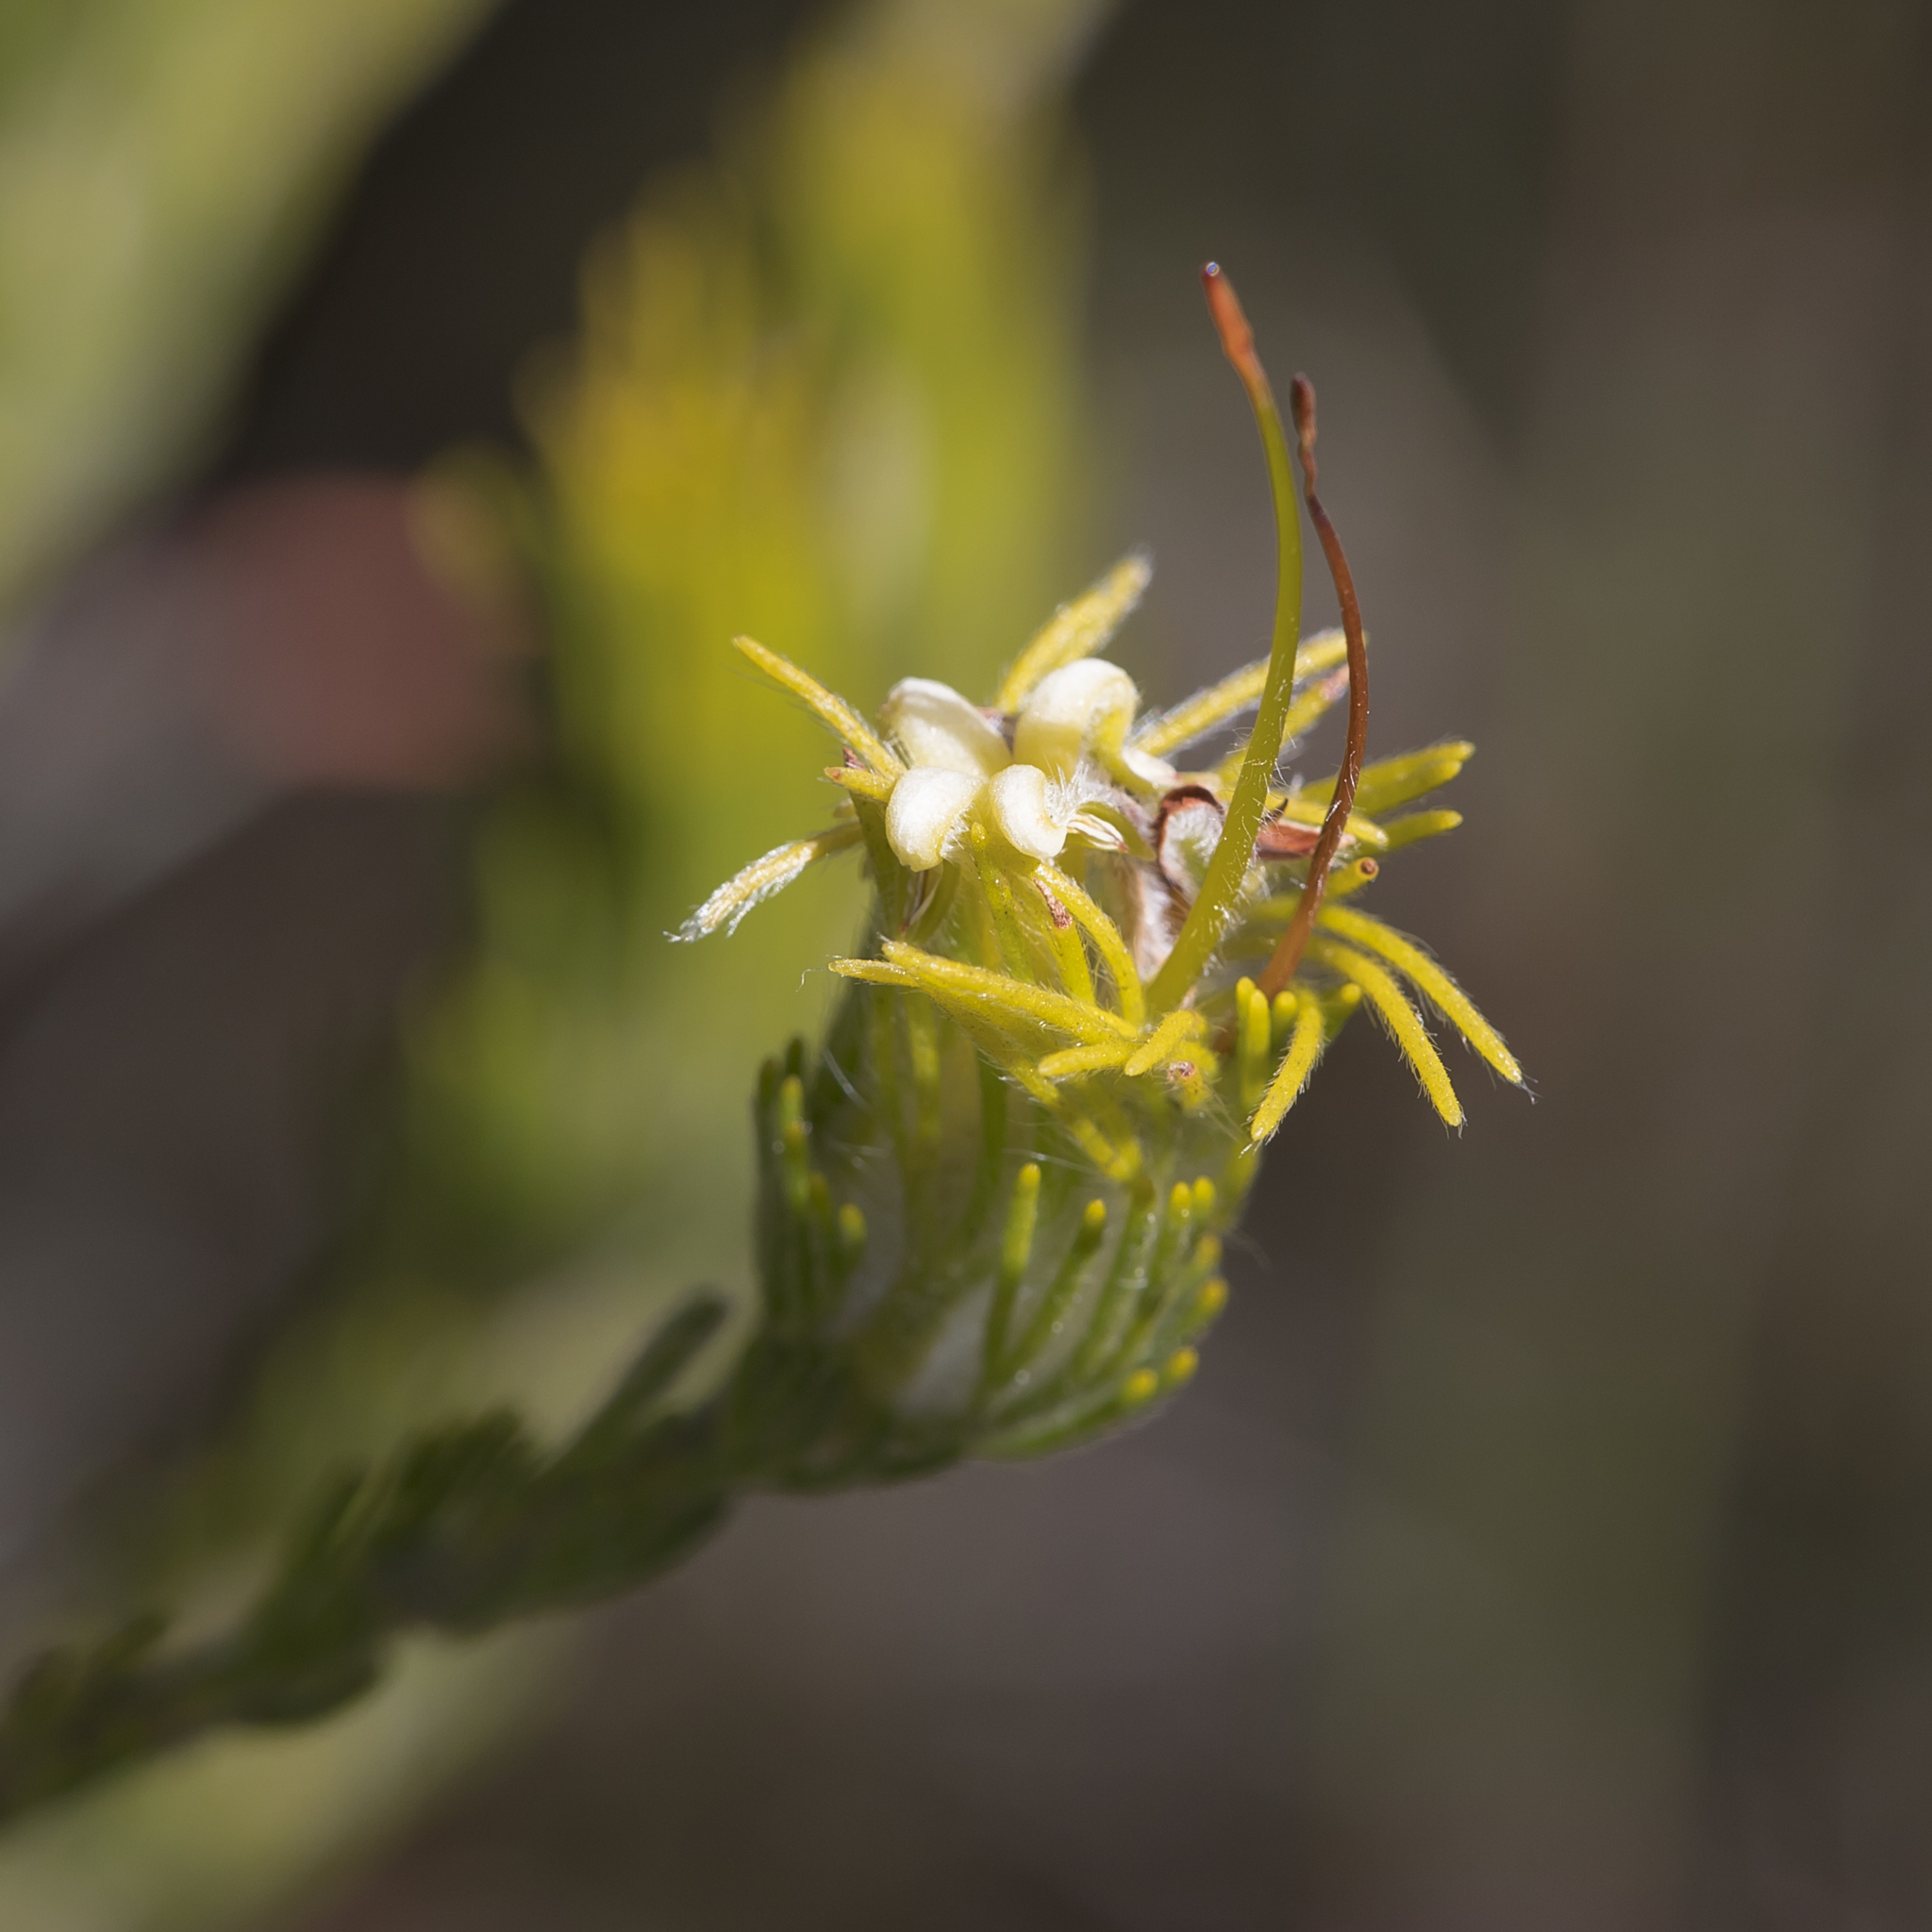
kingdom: Plantae
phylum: Tracheophyta
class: Magnoliopsida
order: Proteales
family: Proteaceae
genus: Adenanthos
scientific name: Adenanthos terminalis
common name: Yellow gland-flower
